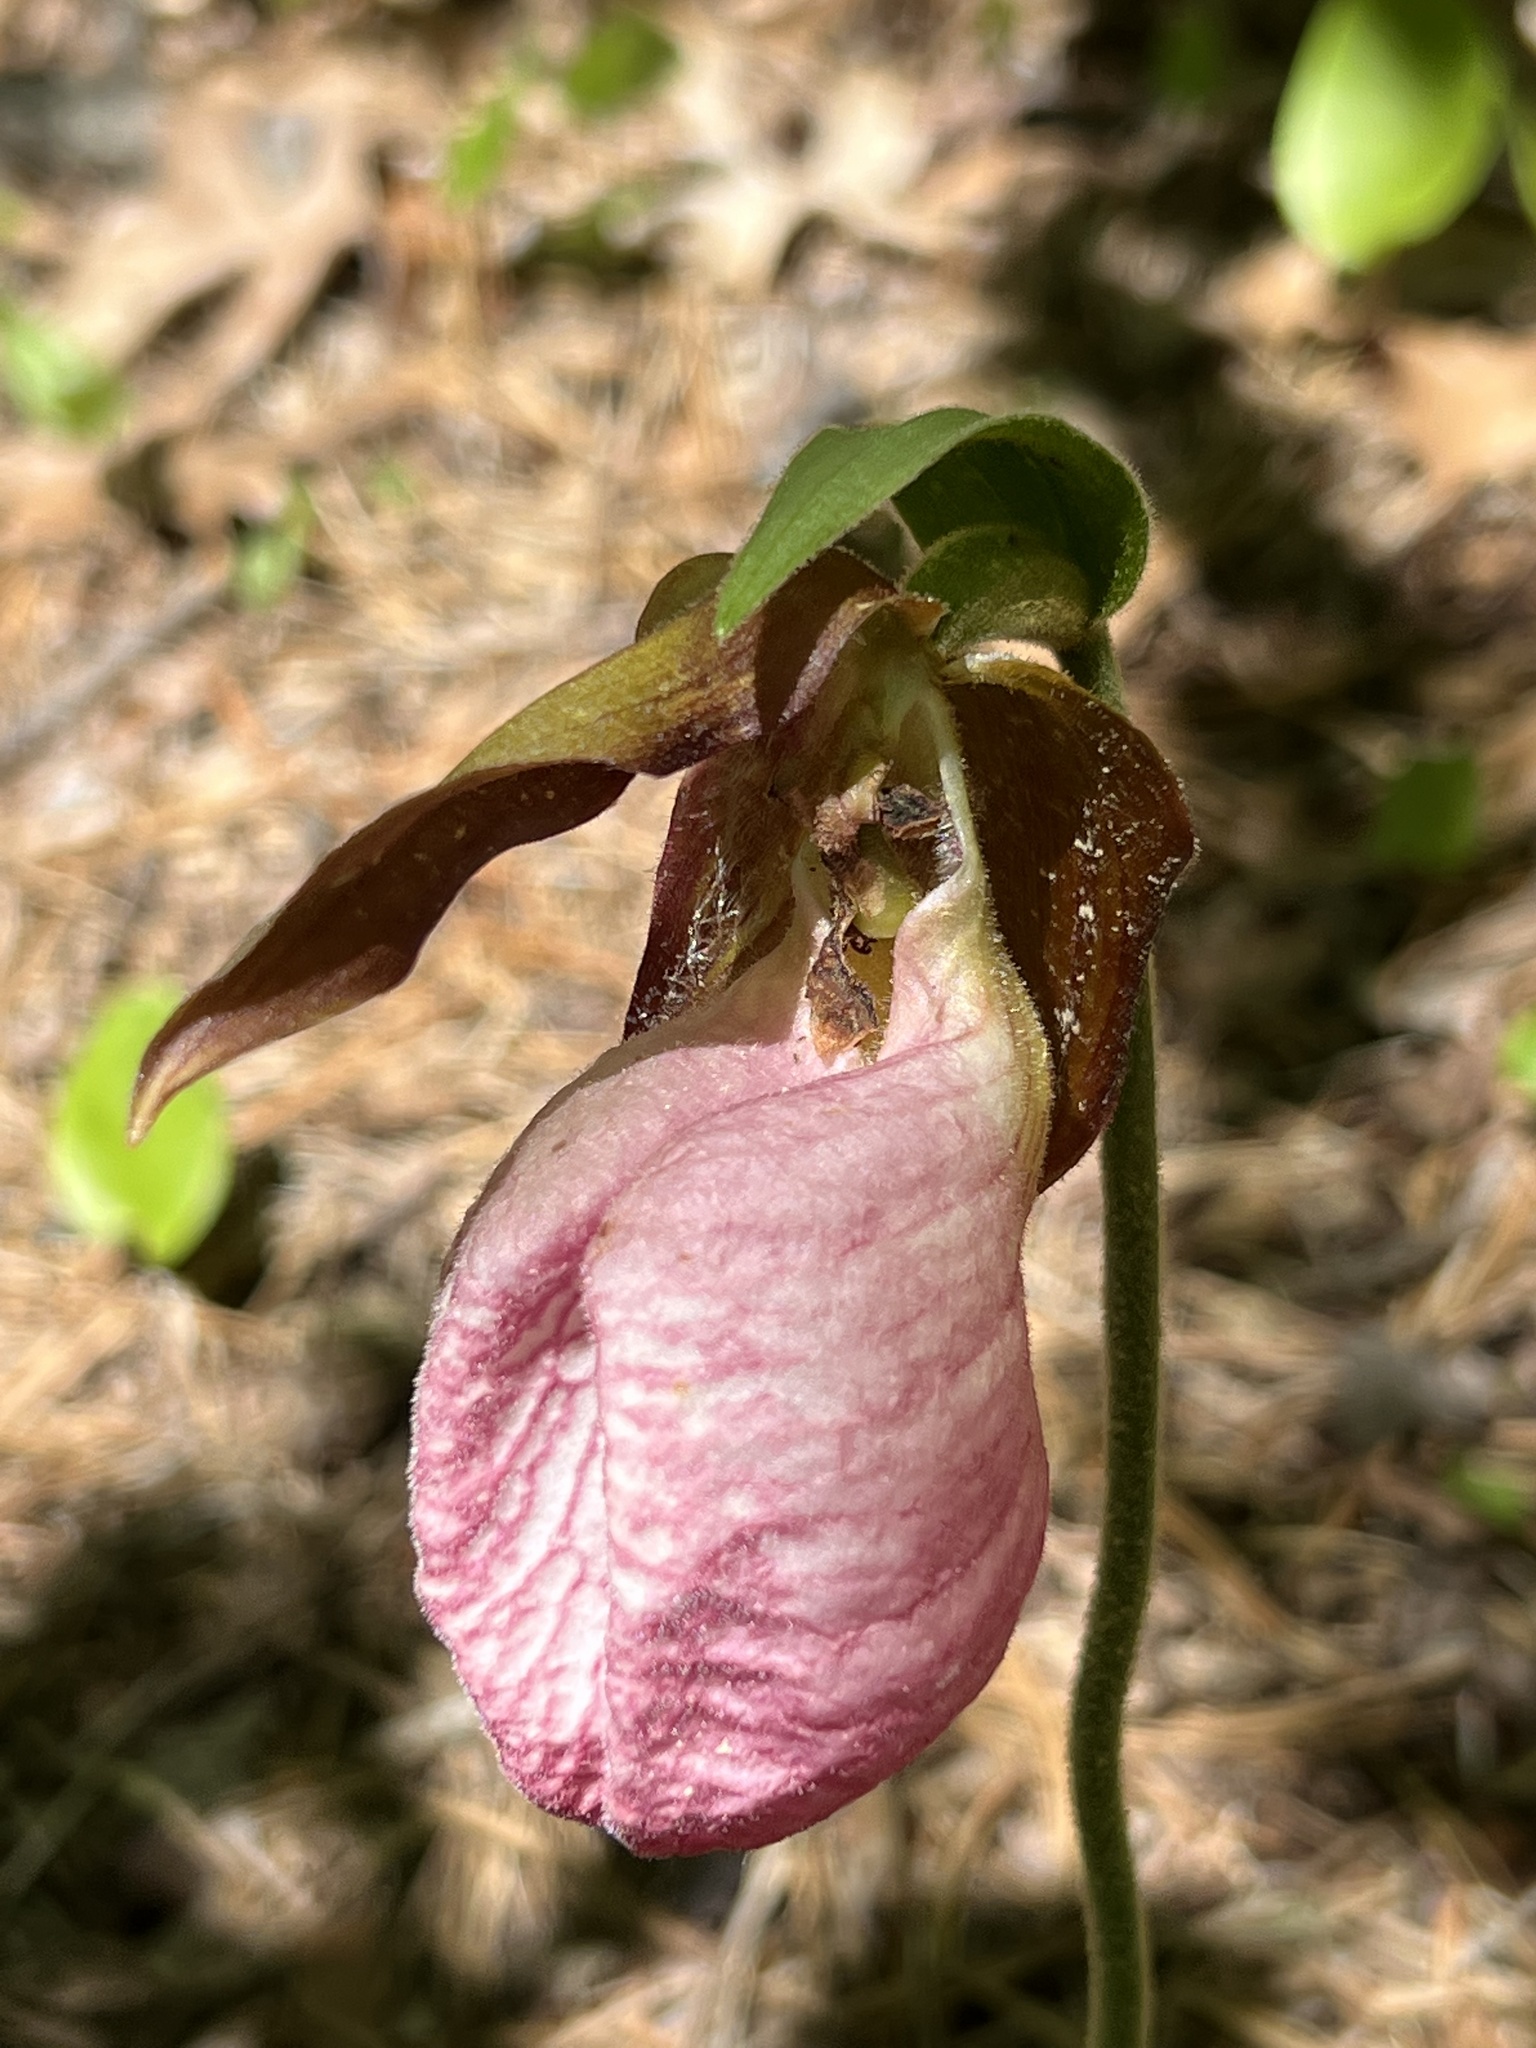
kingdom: Plantae
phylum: Tracheophyta
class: Liliopsida
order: Asparagales
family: Orchidaceae
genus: Cypripedium
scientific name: Cypripedium acaule
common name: Pink lady's-slipper
